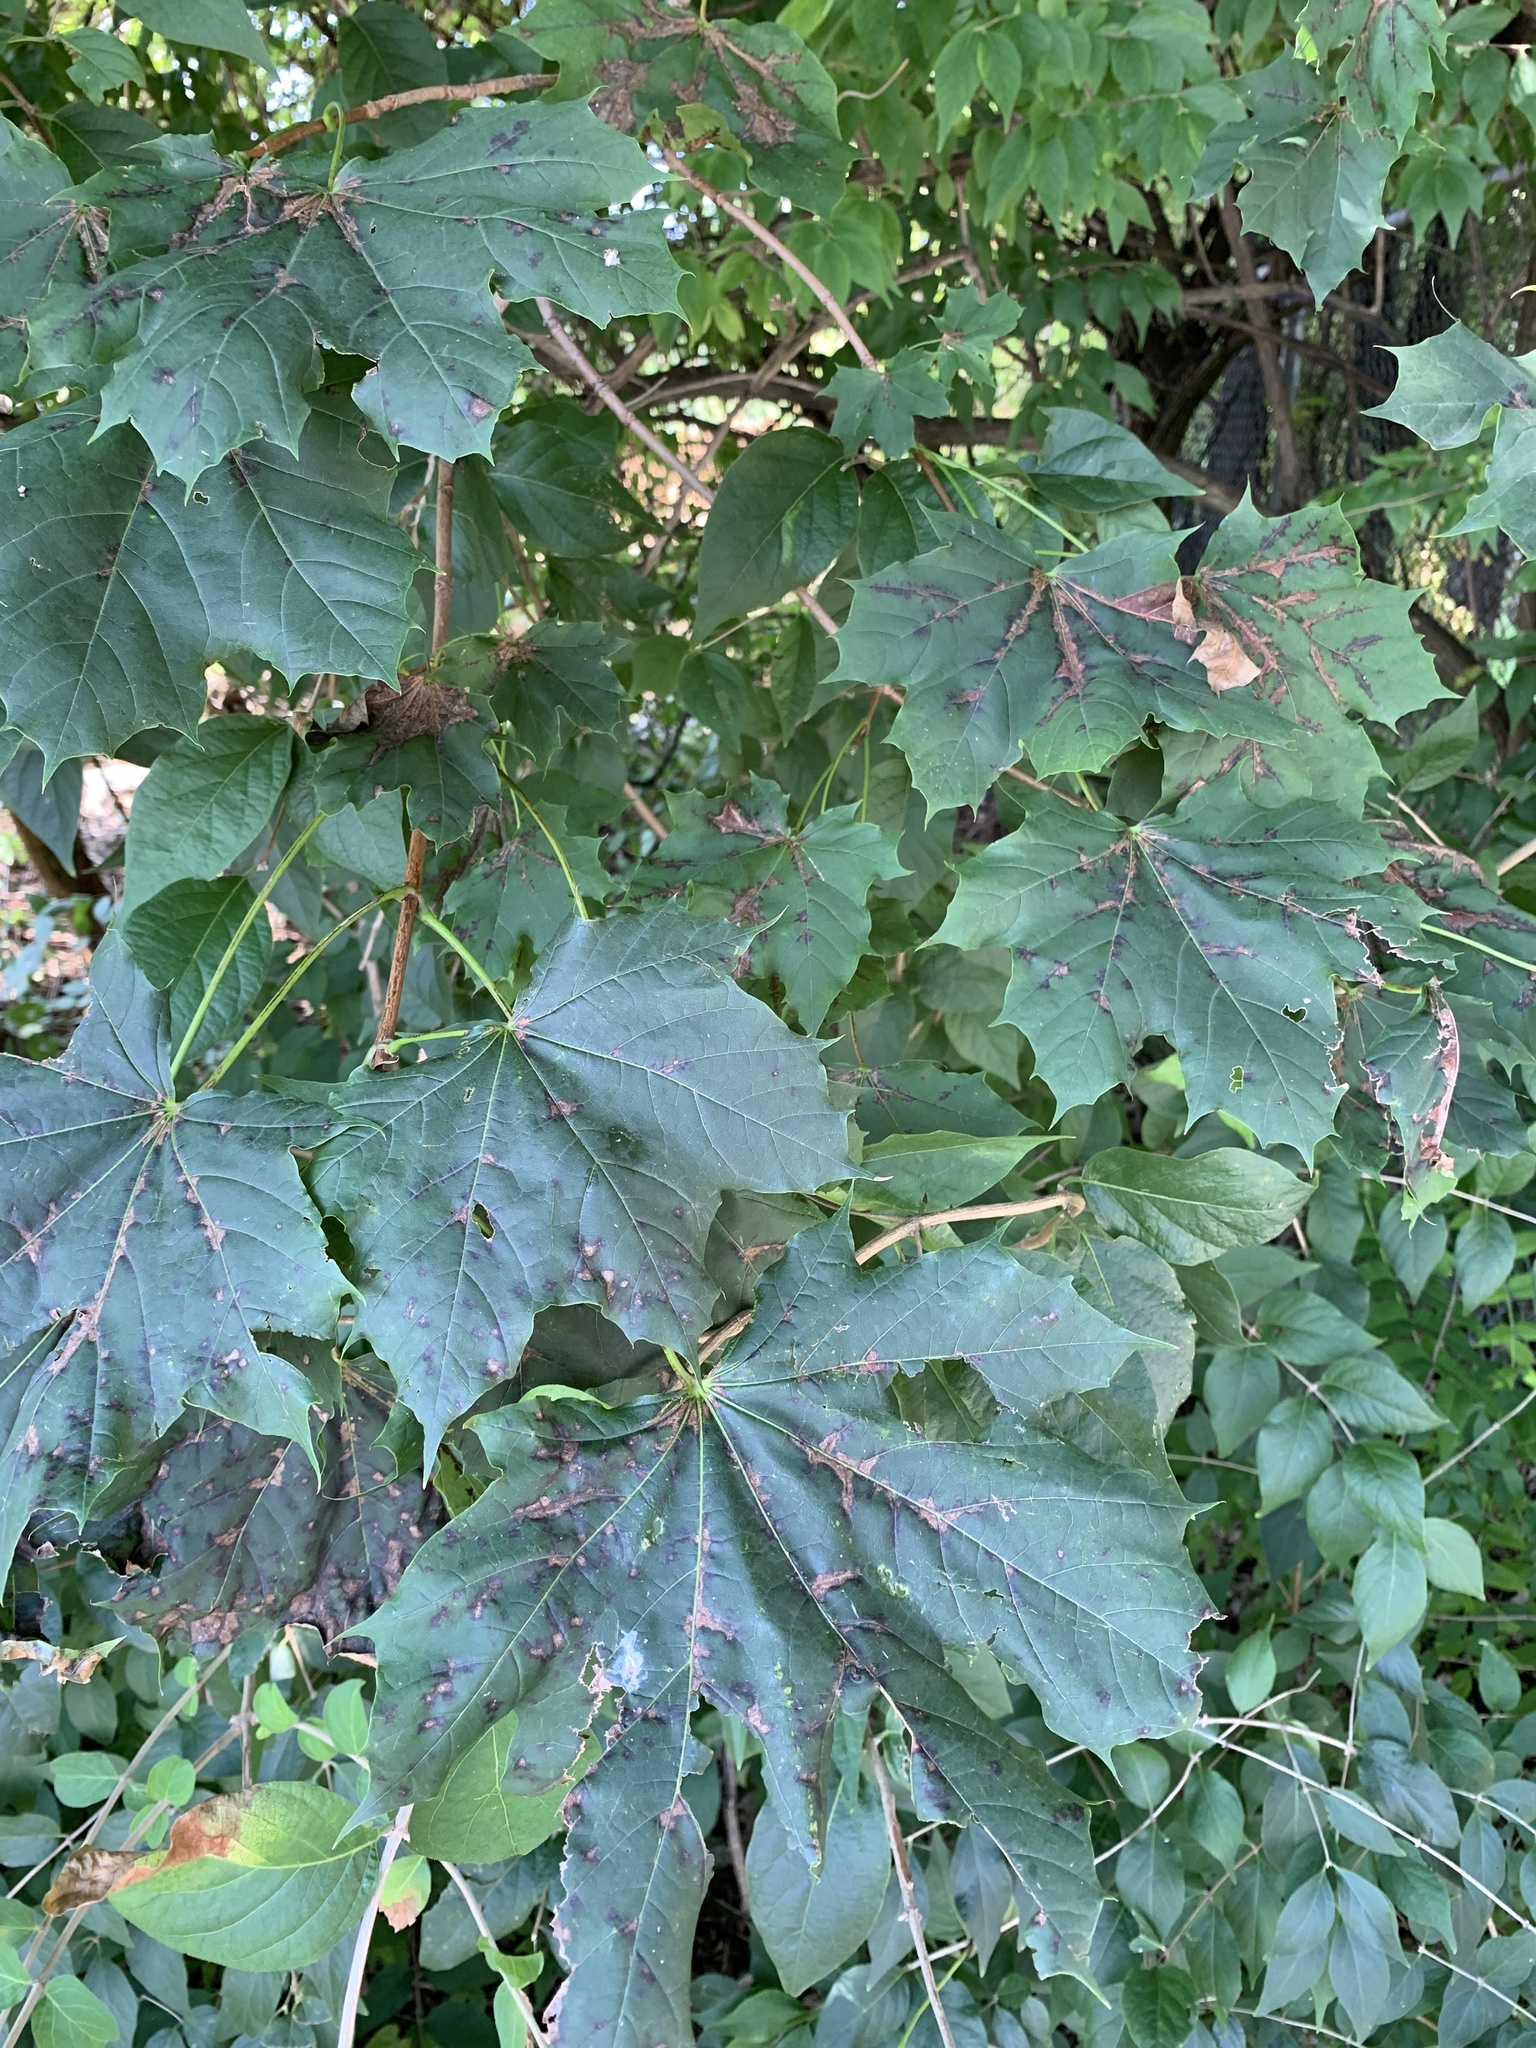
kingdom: Plantae
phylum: Tracheophyta
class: Magnoliopsida
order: Sapindales
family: Sapindaceae
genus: Acer
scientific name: Acer platanoides
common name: Norway maple
